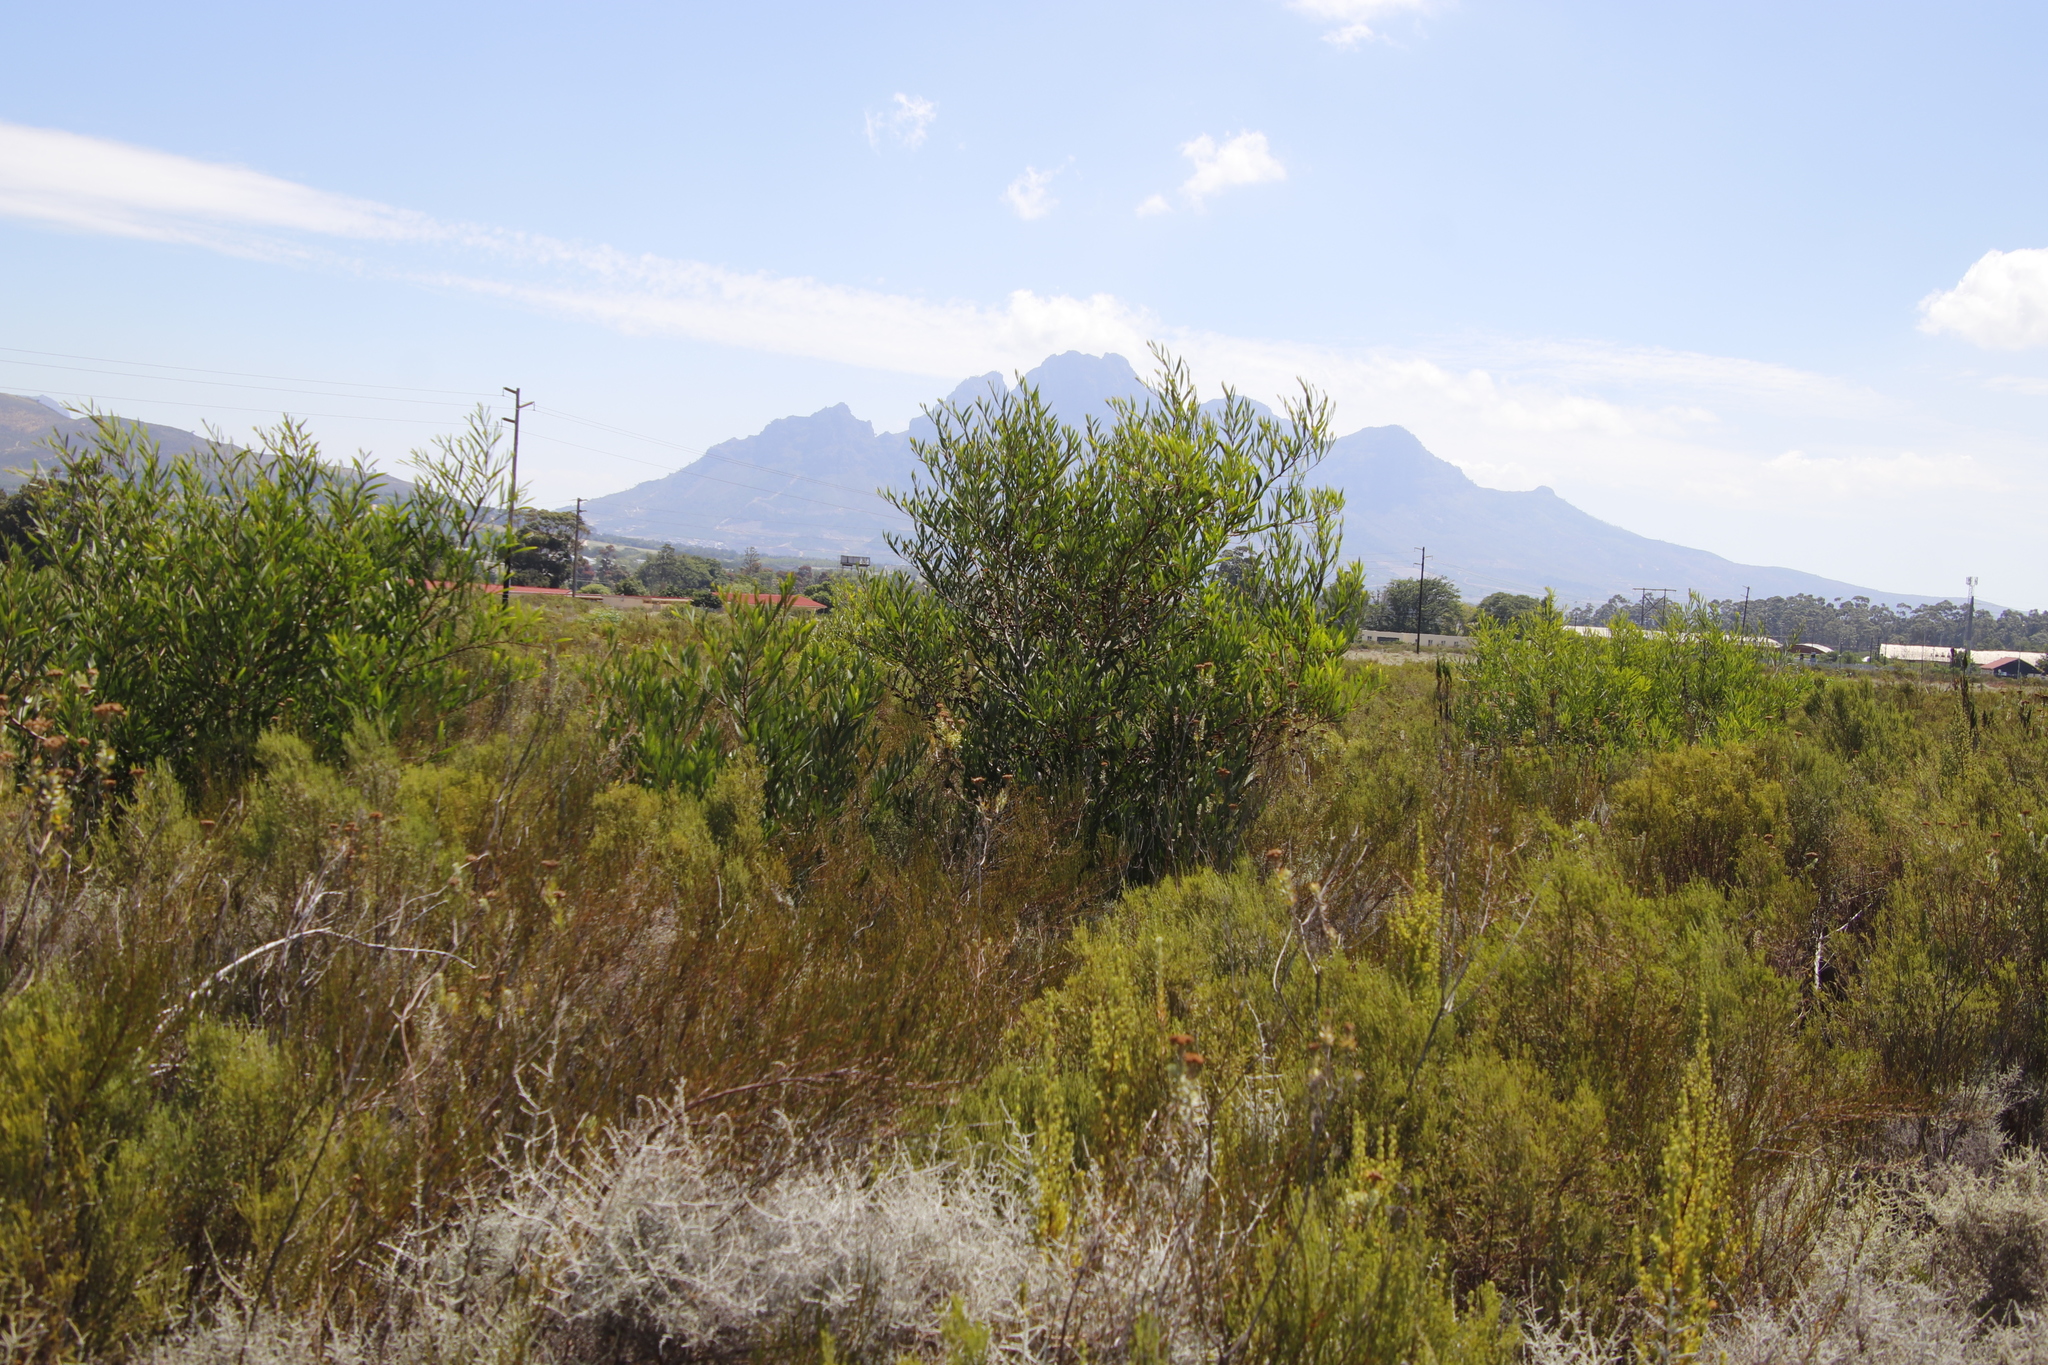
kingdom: Plantae
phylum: Tracheophyta
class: Magnoliopsida
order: Fabales
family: Fabaceae
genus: Acacia
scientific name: Acacia longifolia
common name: Sydney golden wattle
